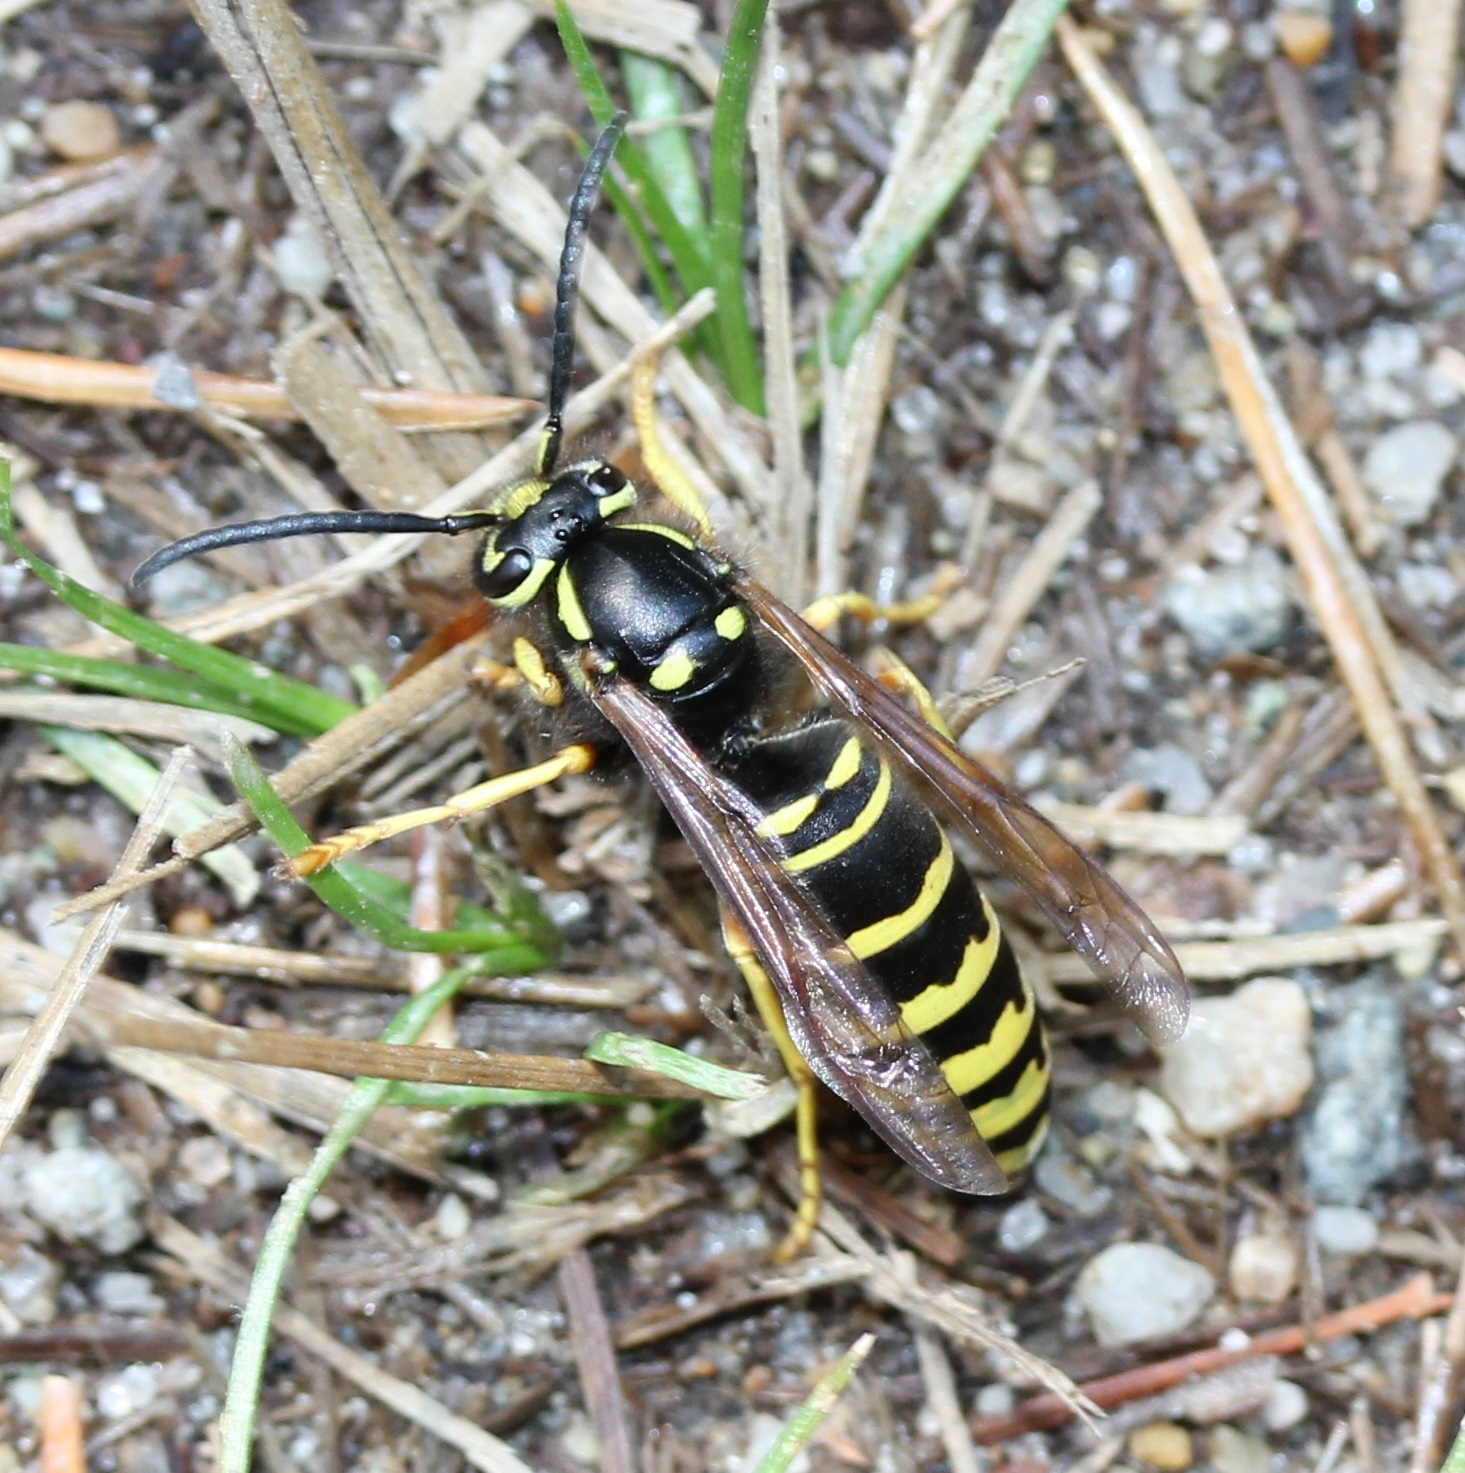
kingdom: Animalia
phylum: Arthropoda
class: Insecta
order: Hymenoptera
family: Vespidae
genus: Vespula
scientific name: Vespula vidua
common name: Widow yellowjacket
